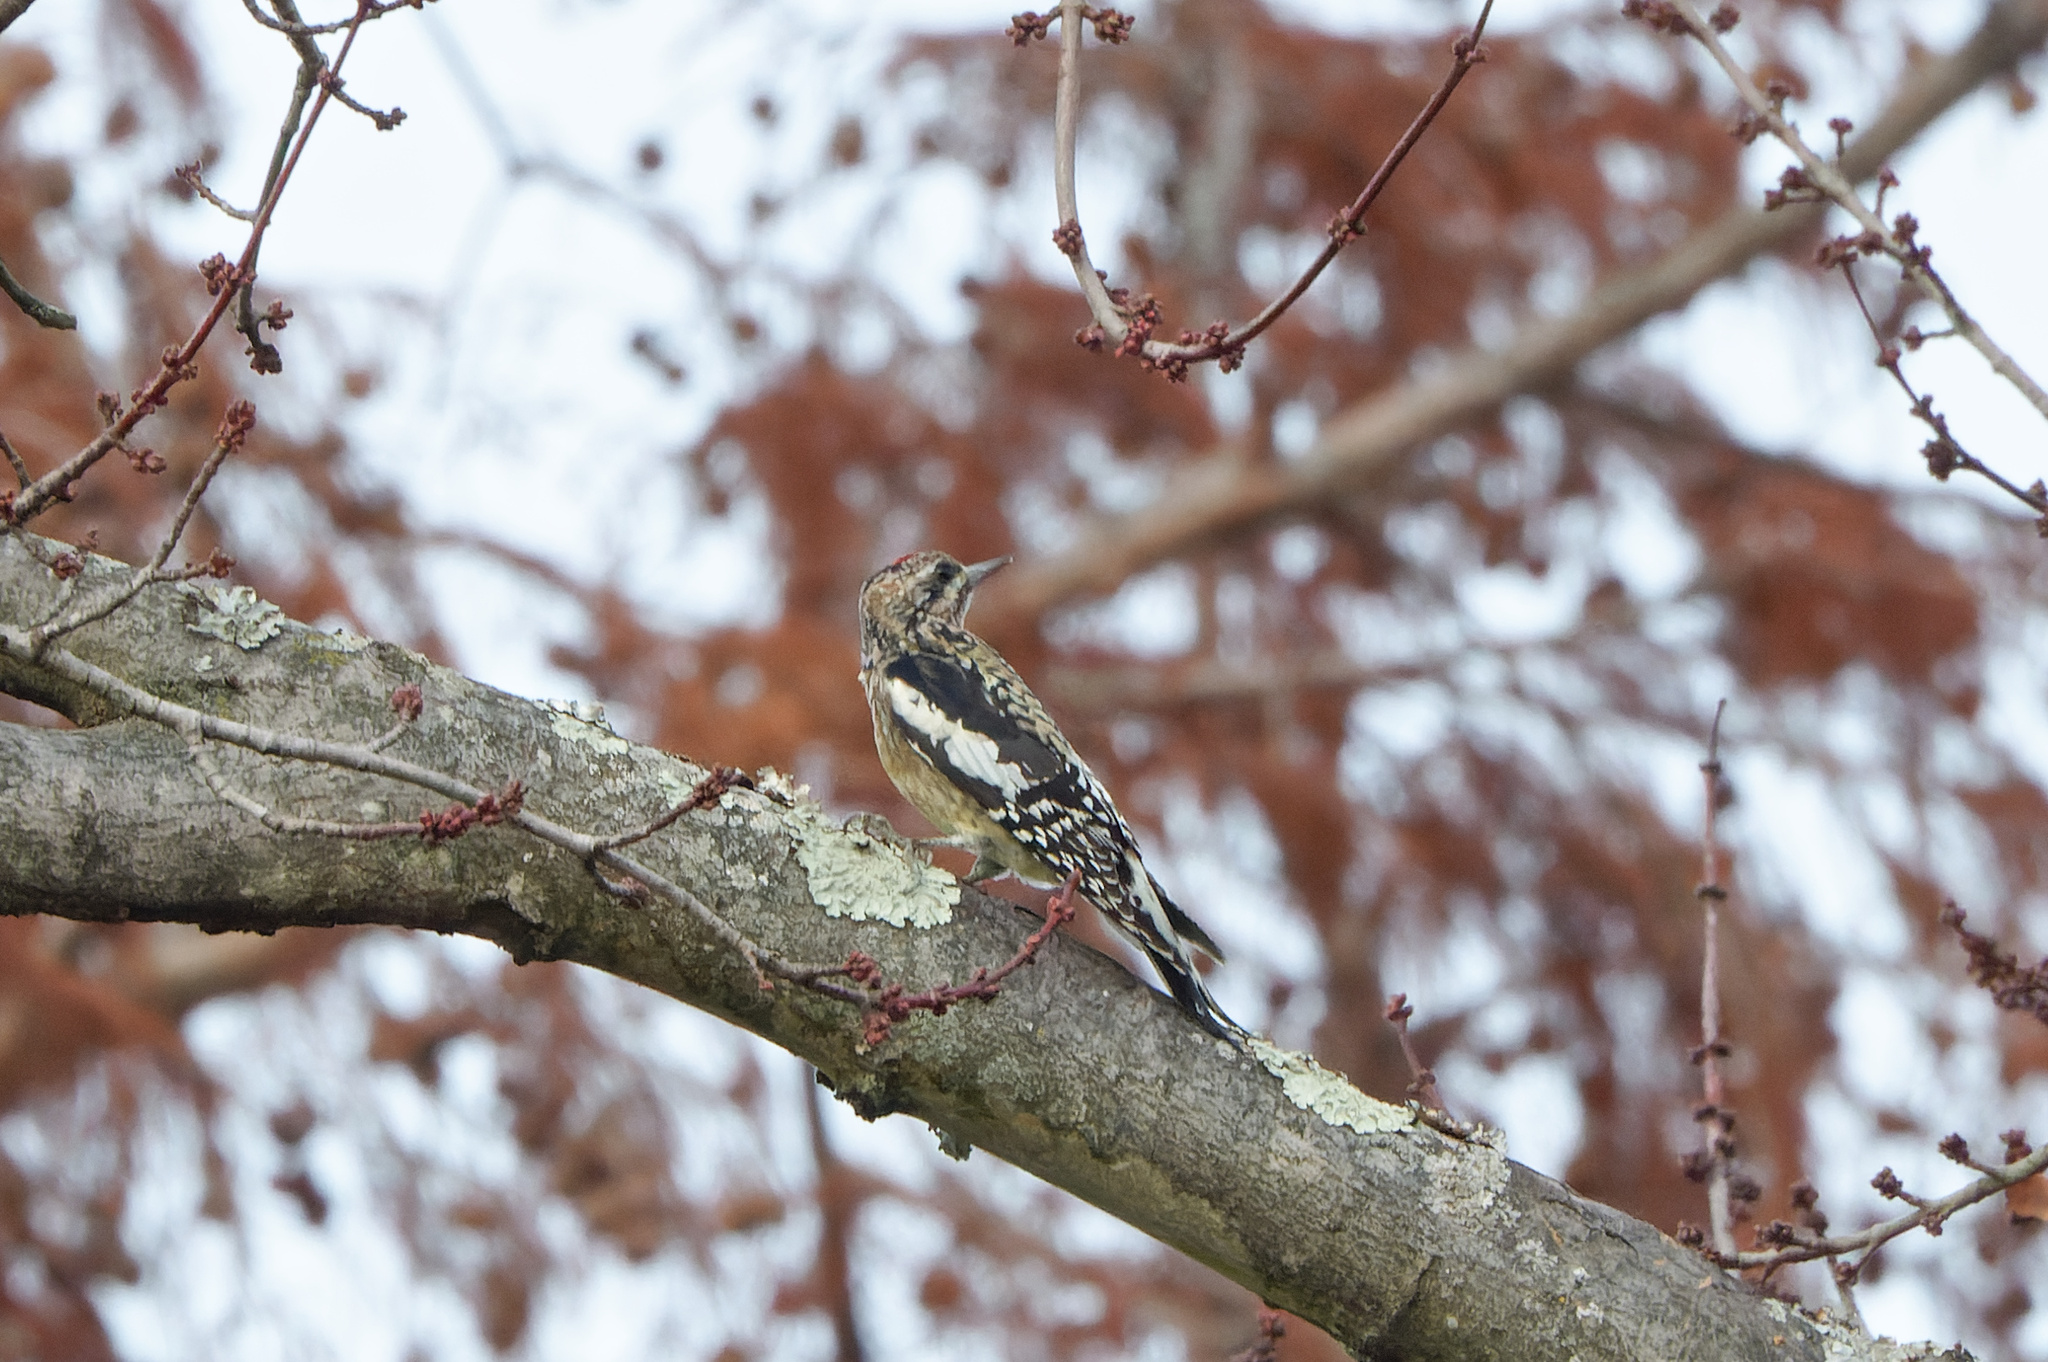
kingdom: Animalia
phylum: Chordata
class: Aves
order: Piciformes
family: Picidae
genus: Sphyrapicus
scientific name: Sphyrapicus varius
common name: Yellow-bellied sapsucker
